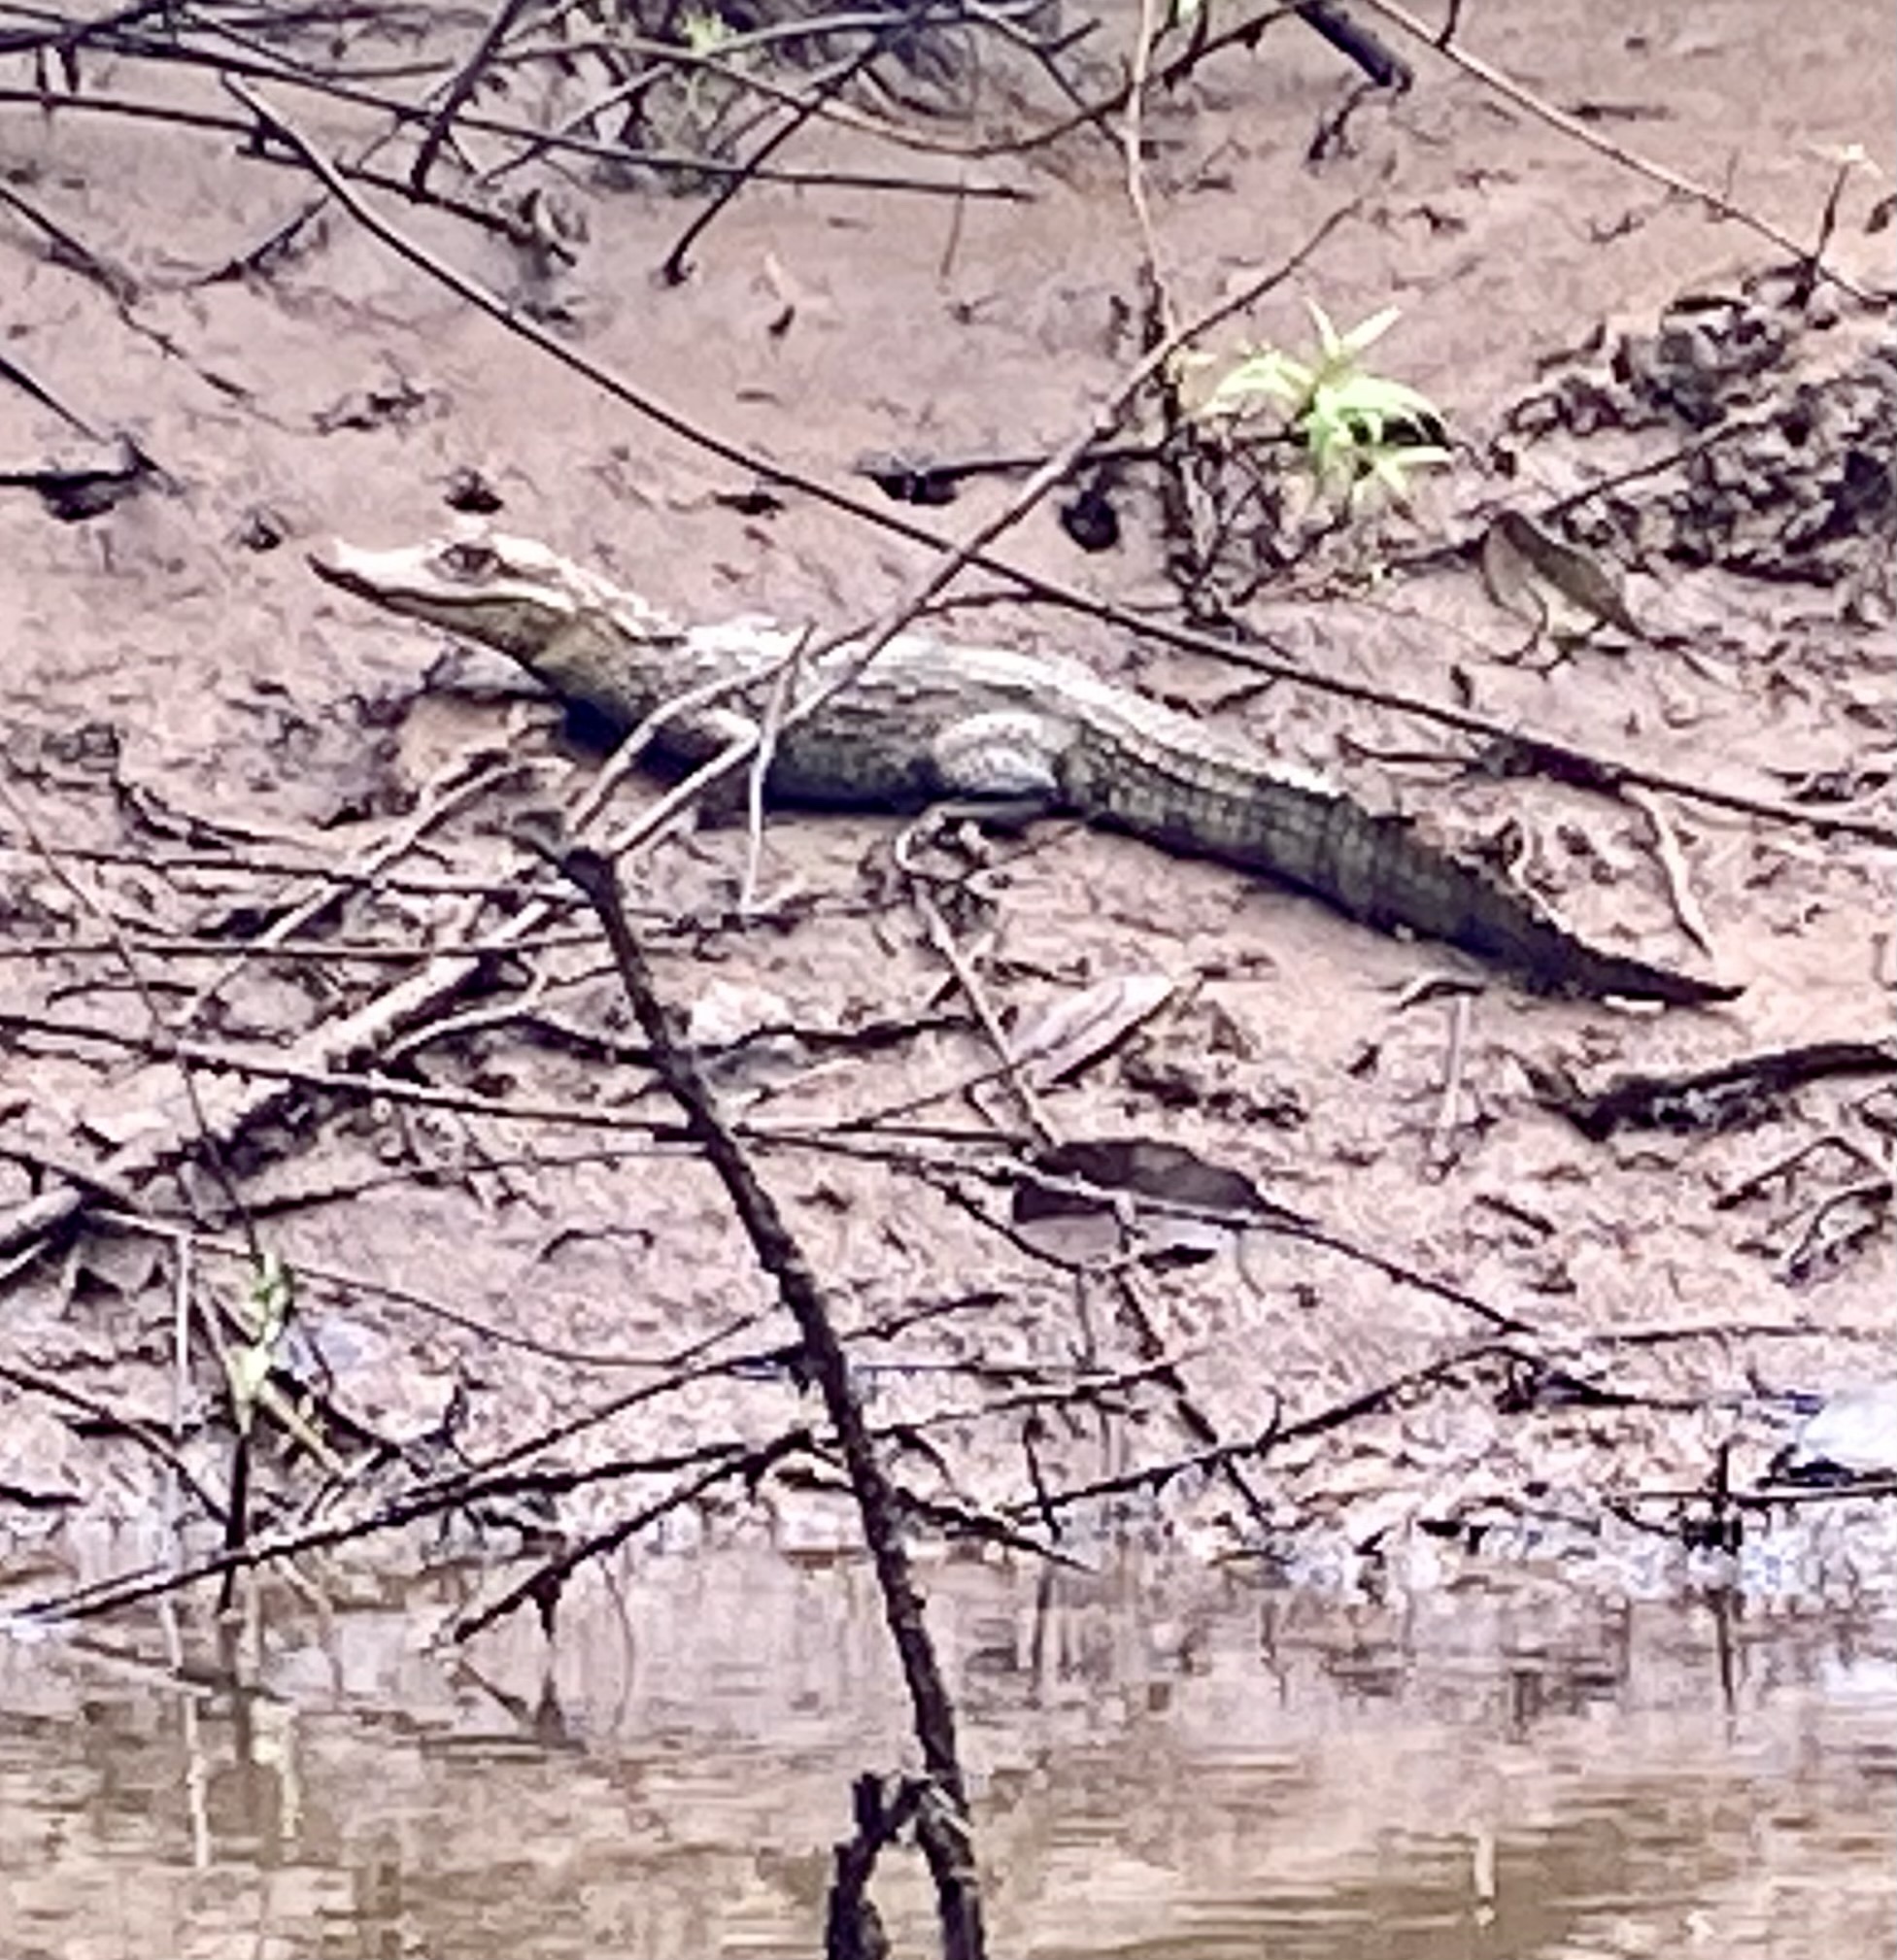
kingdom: Animalia
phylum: Chordata
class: Crocodylia
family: Alligatoridae
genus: Caiman
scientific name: Caiman crocodilus
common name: Common caiman
